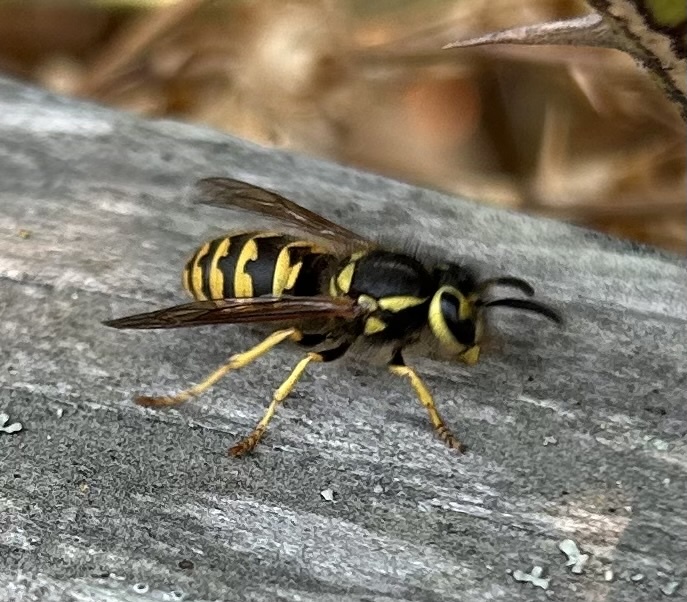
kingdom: Animalia
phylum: Arthropoda
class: Insecta
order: Hymenoptera
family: Vespidae
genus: Vespula
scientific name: Vespula pensylvanica
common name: Western yellowjacket
